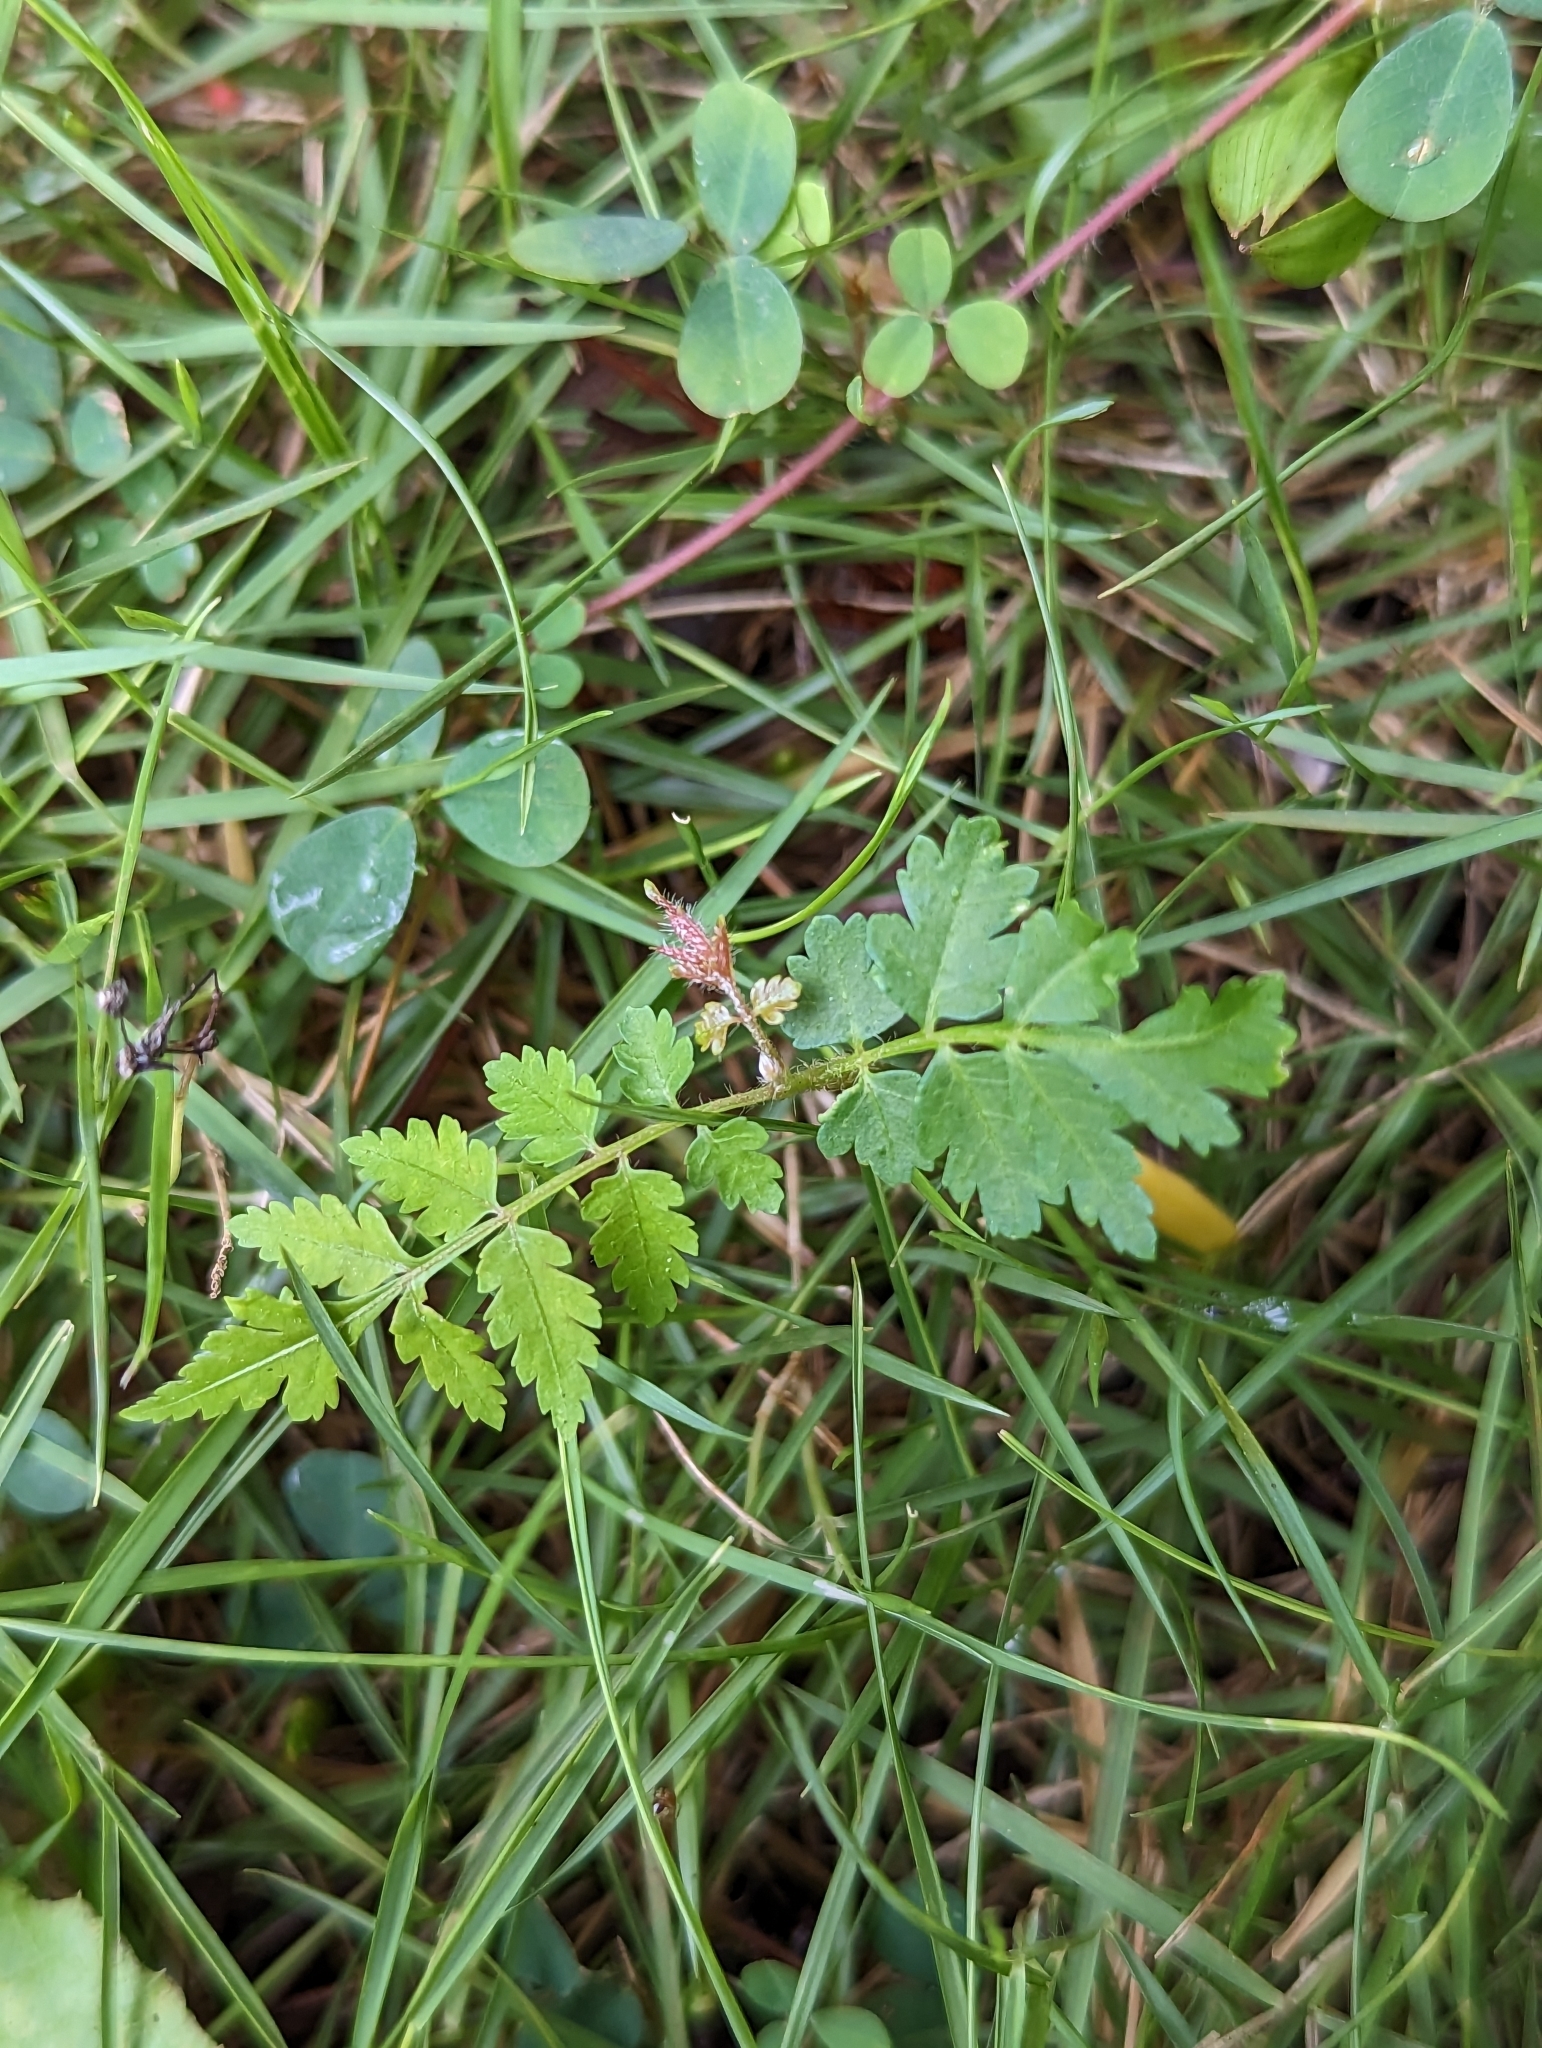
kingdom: Plantae
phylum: Tracheophyta
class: Magnoliopsida
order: Sapindales
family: Sapindaceae
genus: Koelreuteria
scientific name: Koelreuteria elegans
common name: Chinese flame tree
